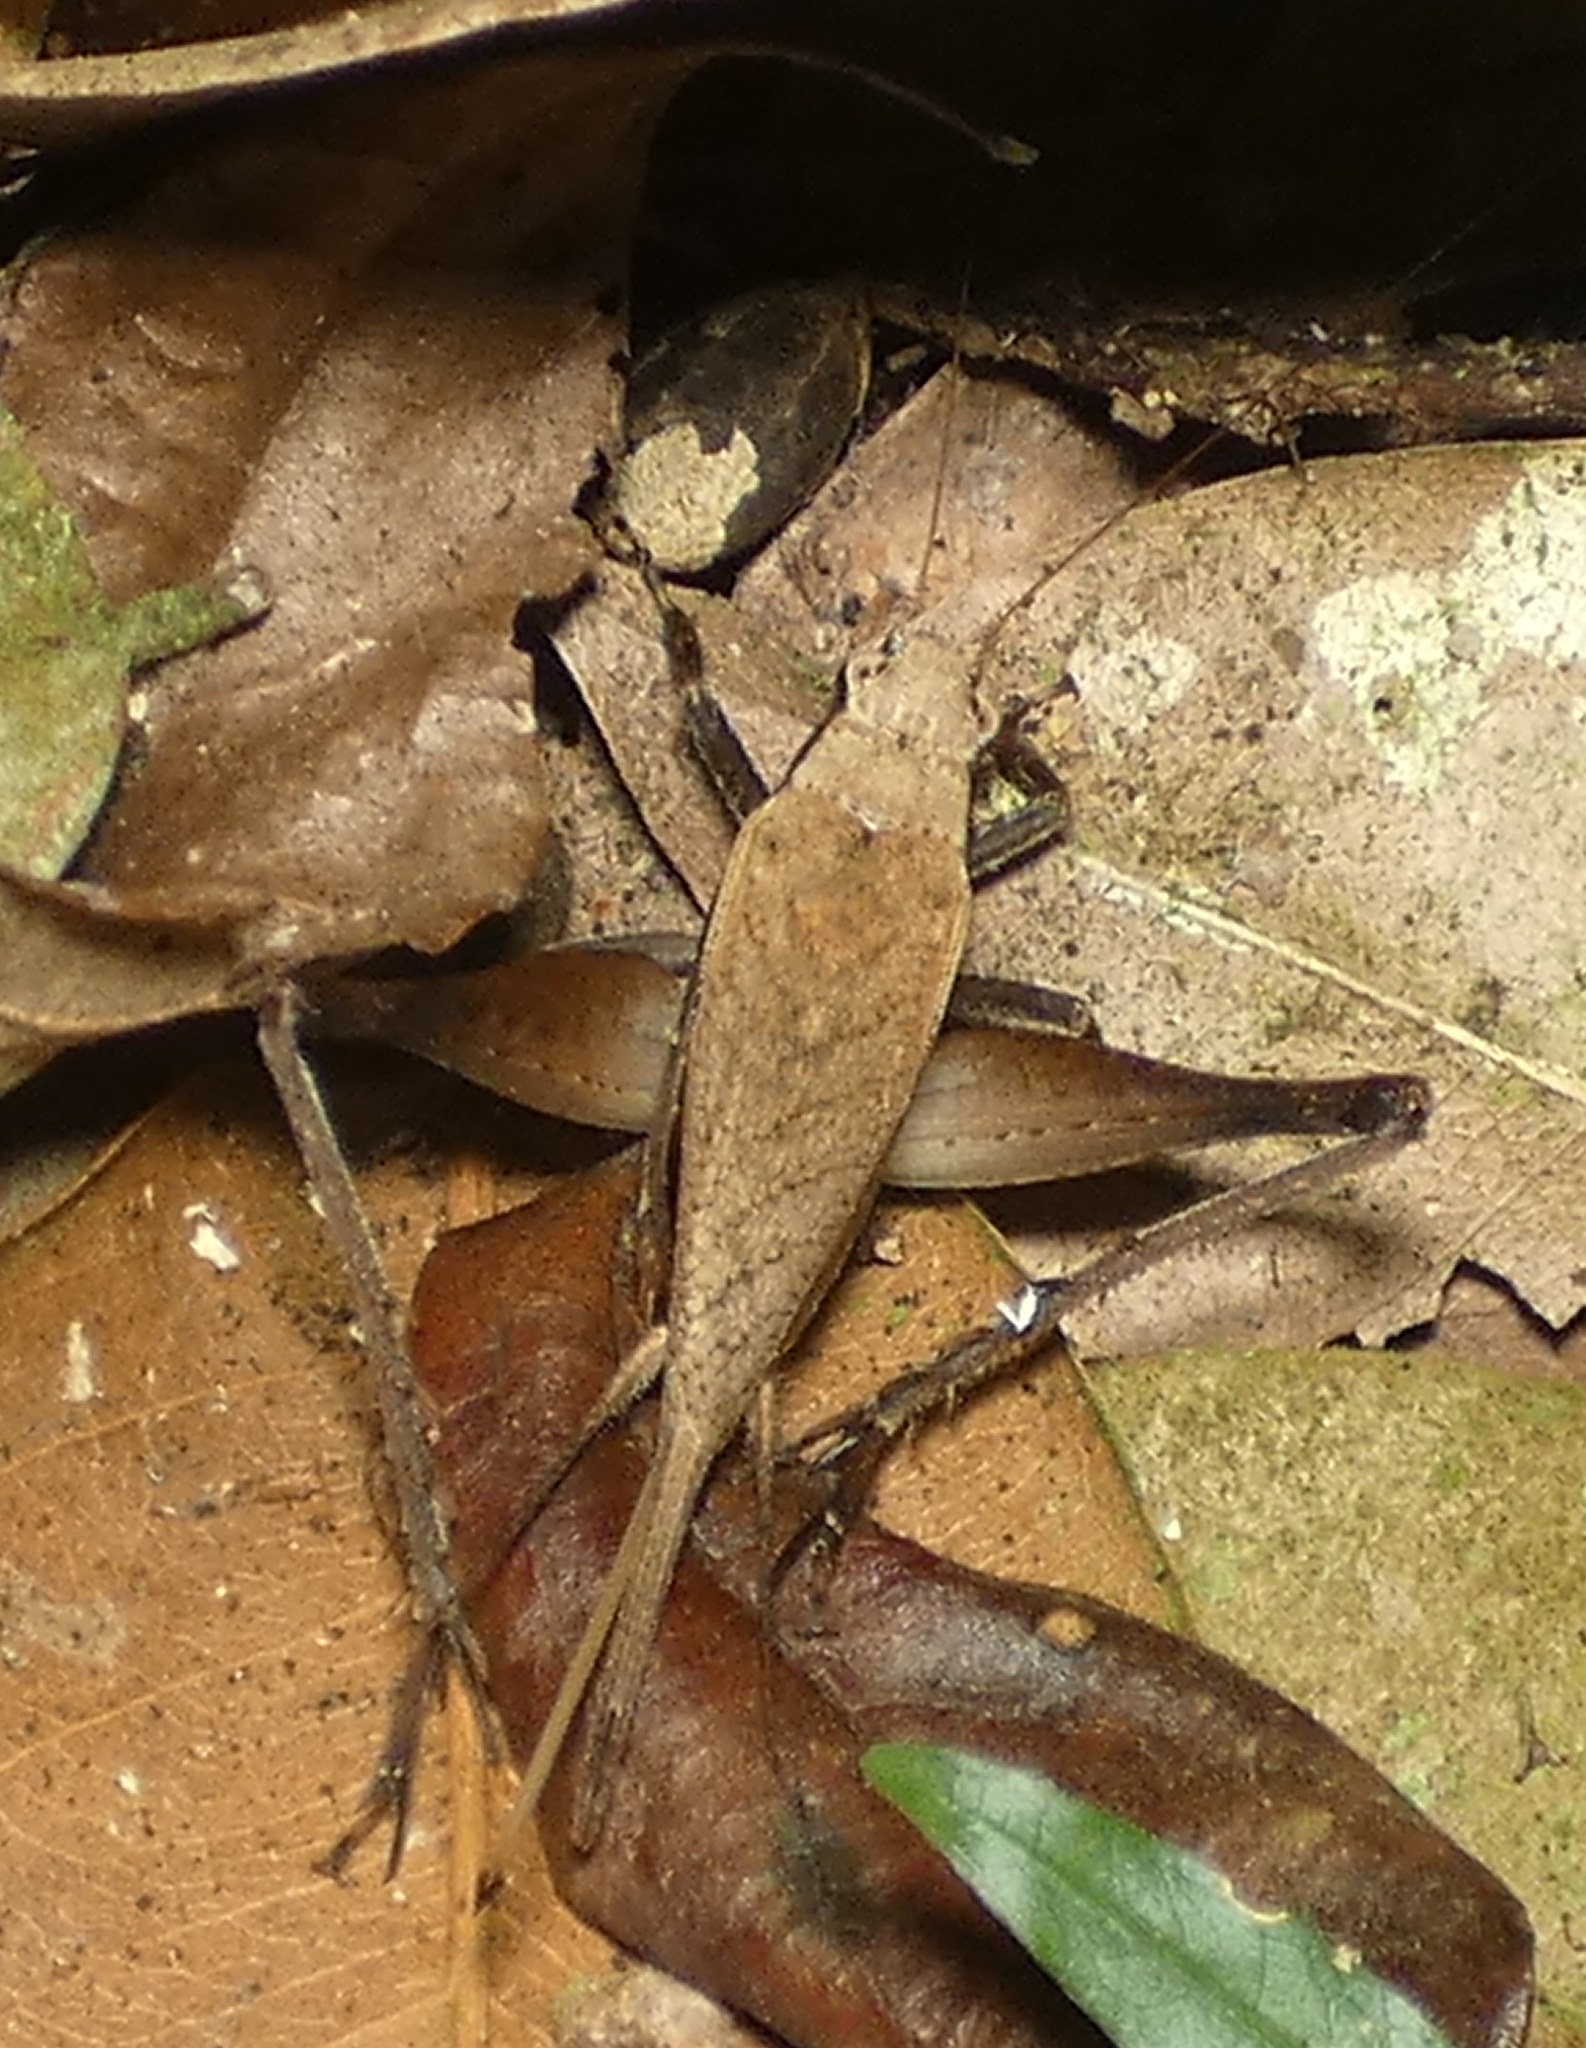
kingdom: Animalia
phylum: Arthropoda
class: Insecta
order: Orthoptera
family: Gryllidae
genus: Eneoptera
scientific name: Eneoptera surinamensis
